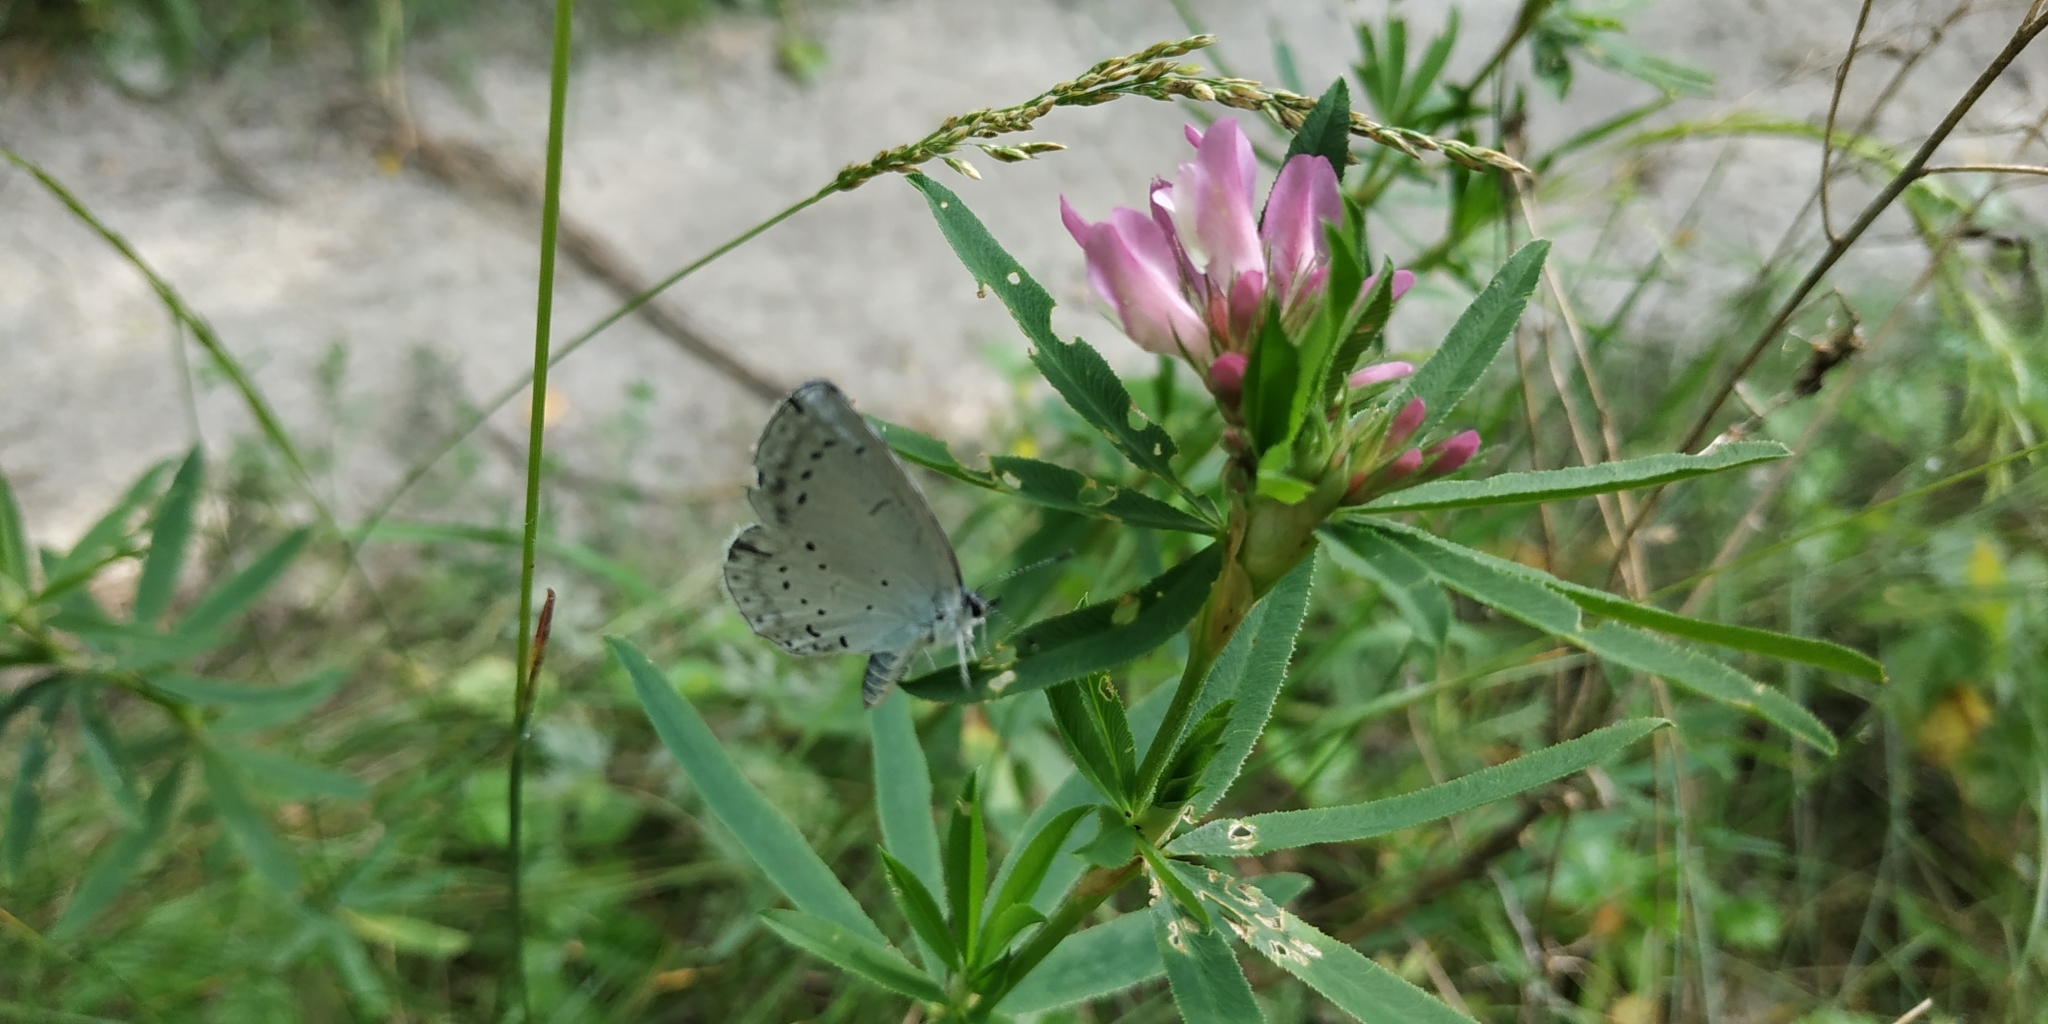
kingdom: Animalia
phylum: Arthropoda
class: Insecta
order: Lepidoptera
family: Lycaenidae
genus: Celastrina
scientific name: Celastrina argiolus
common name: Holly blue
